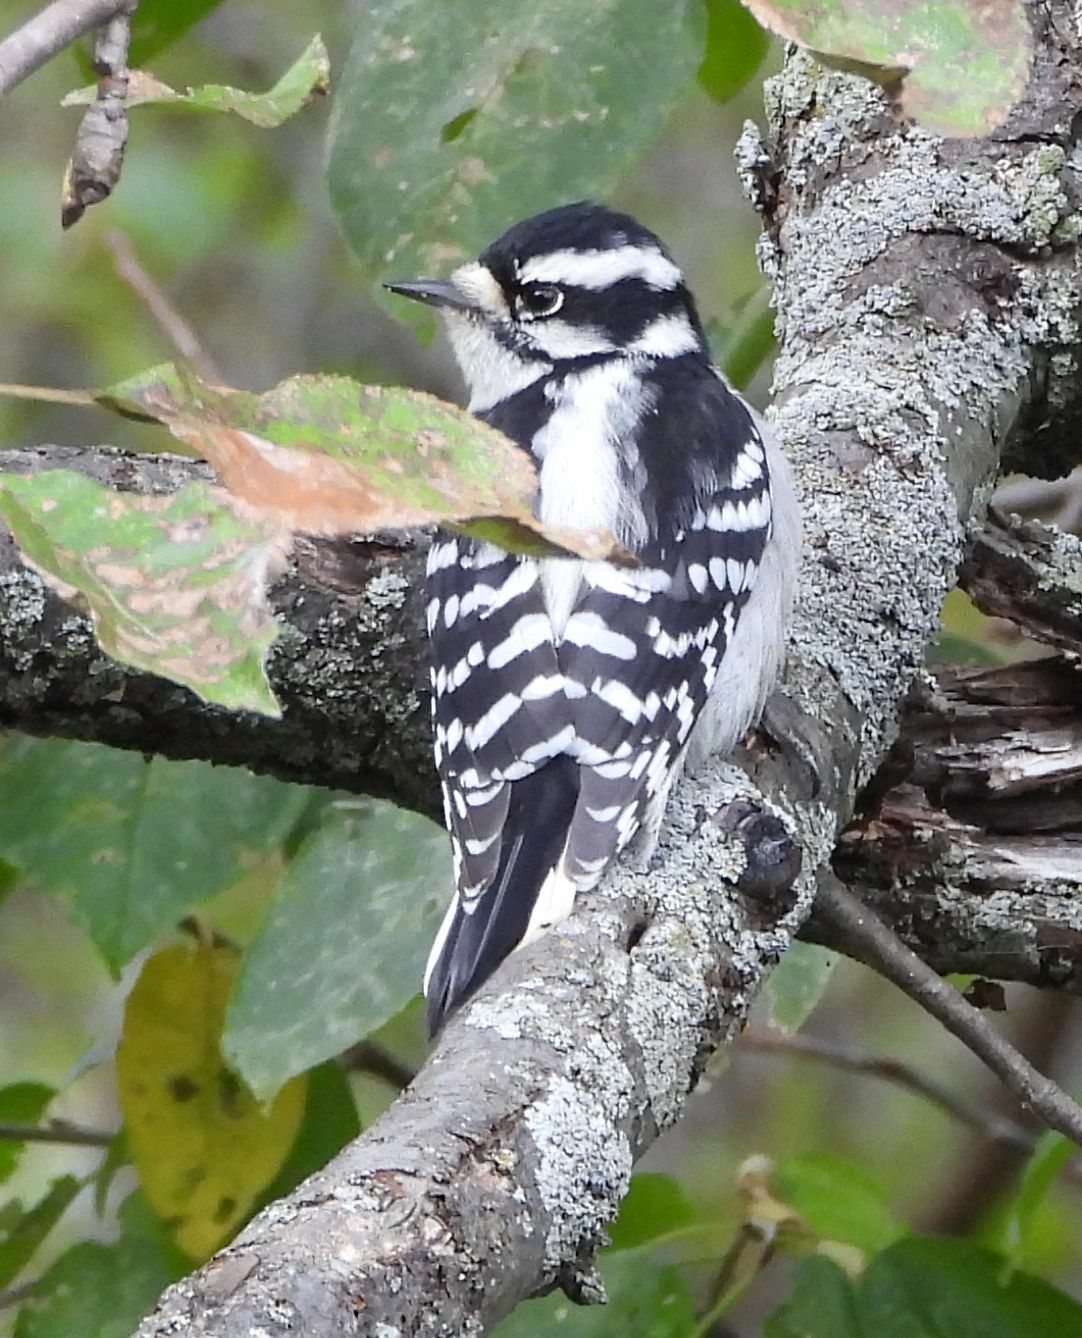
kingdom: Animalia
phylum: Chordata
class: Aves
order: Piciformes
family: Picidae
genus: Dryobates
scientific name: Dryobates pubescens
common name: Downy woodpecker
